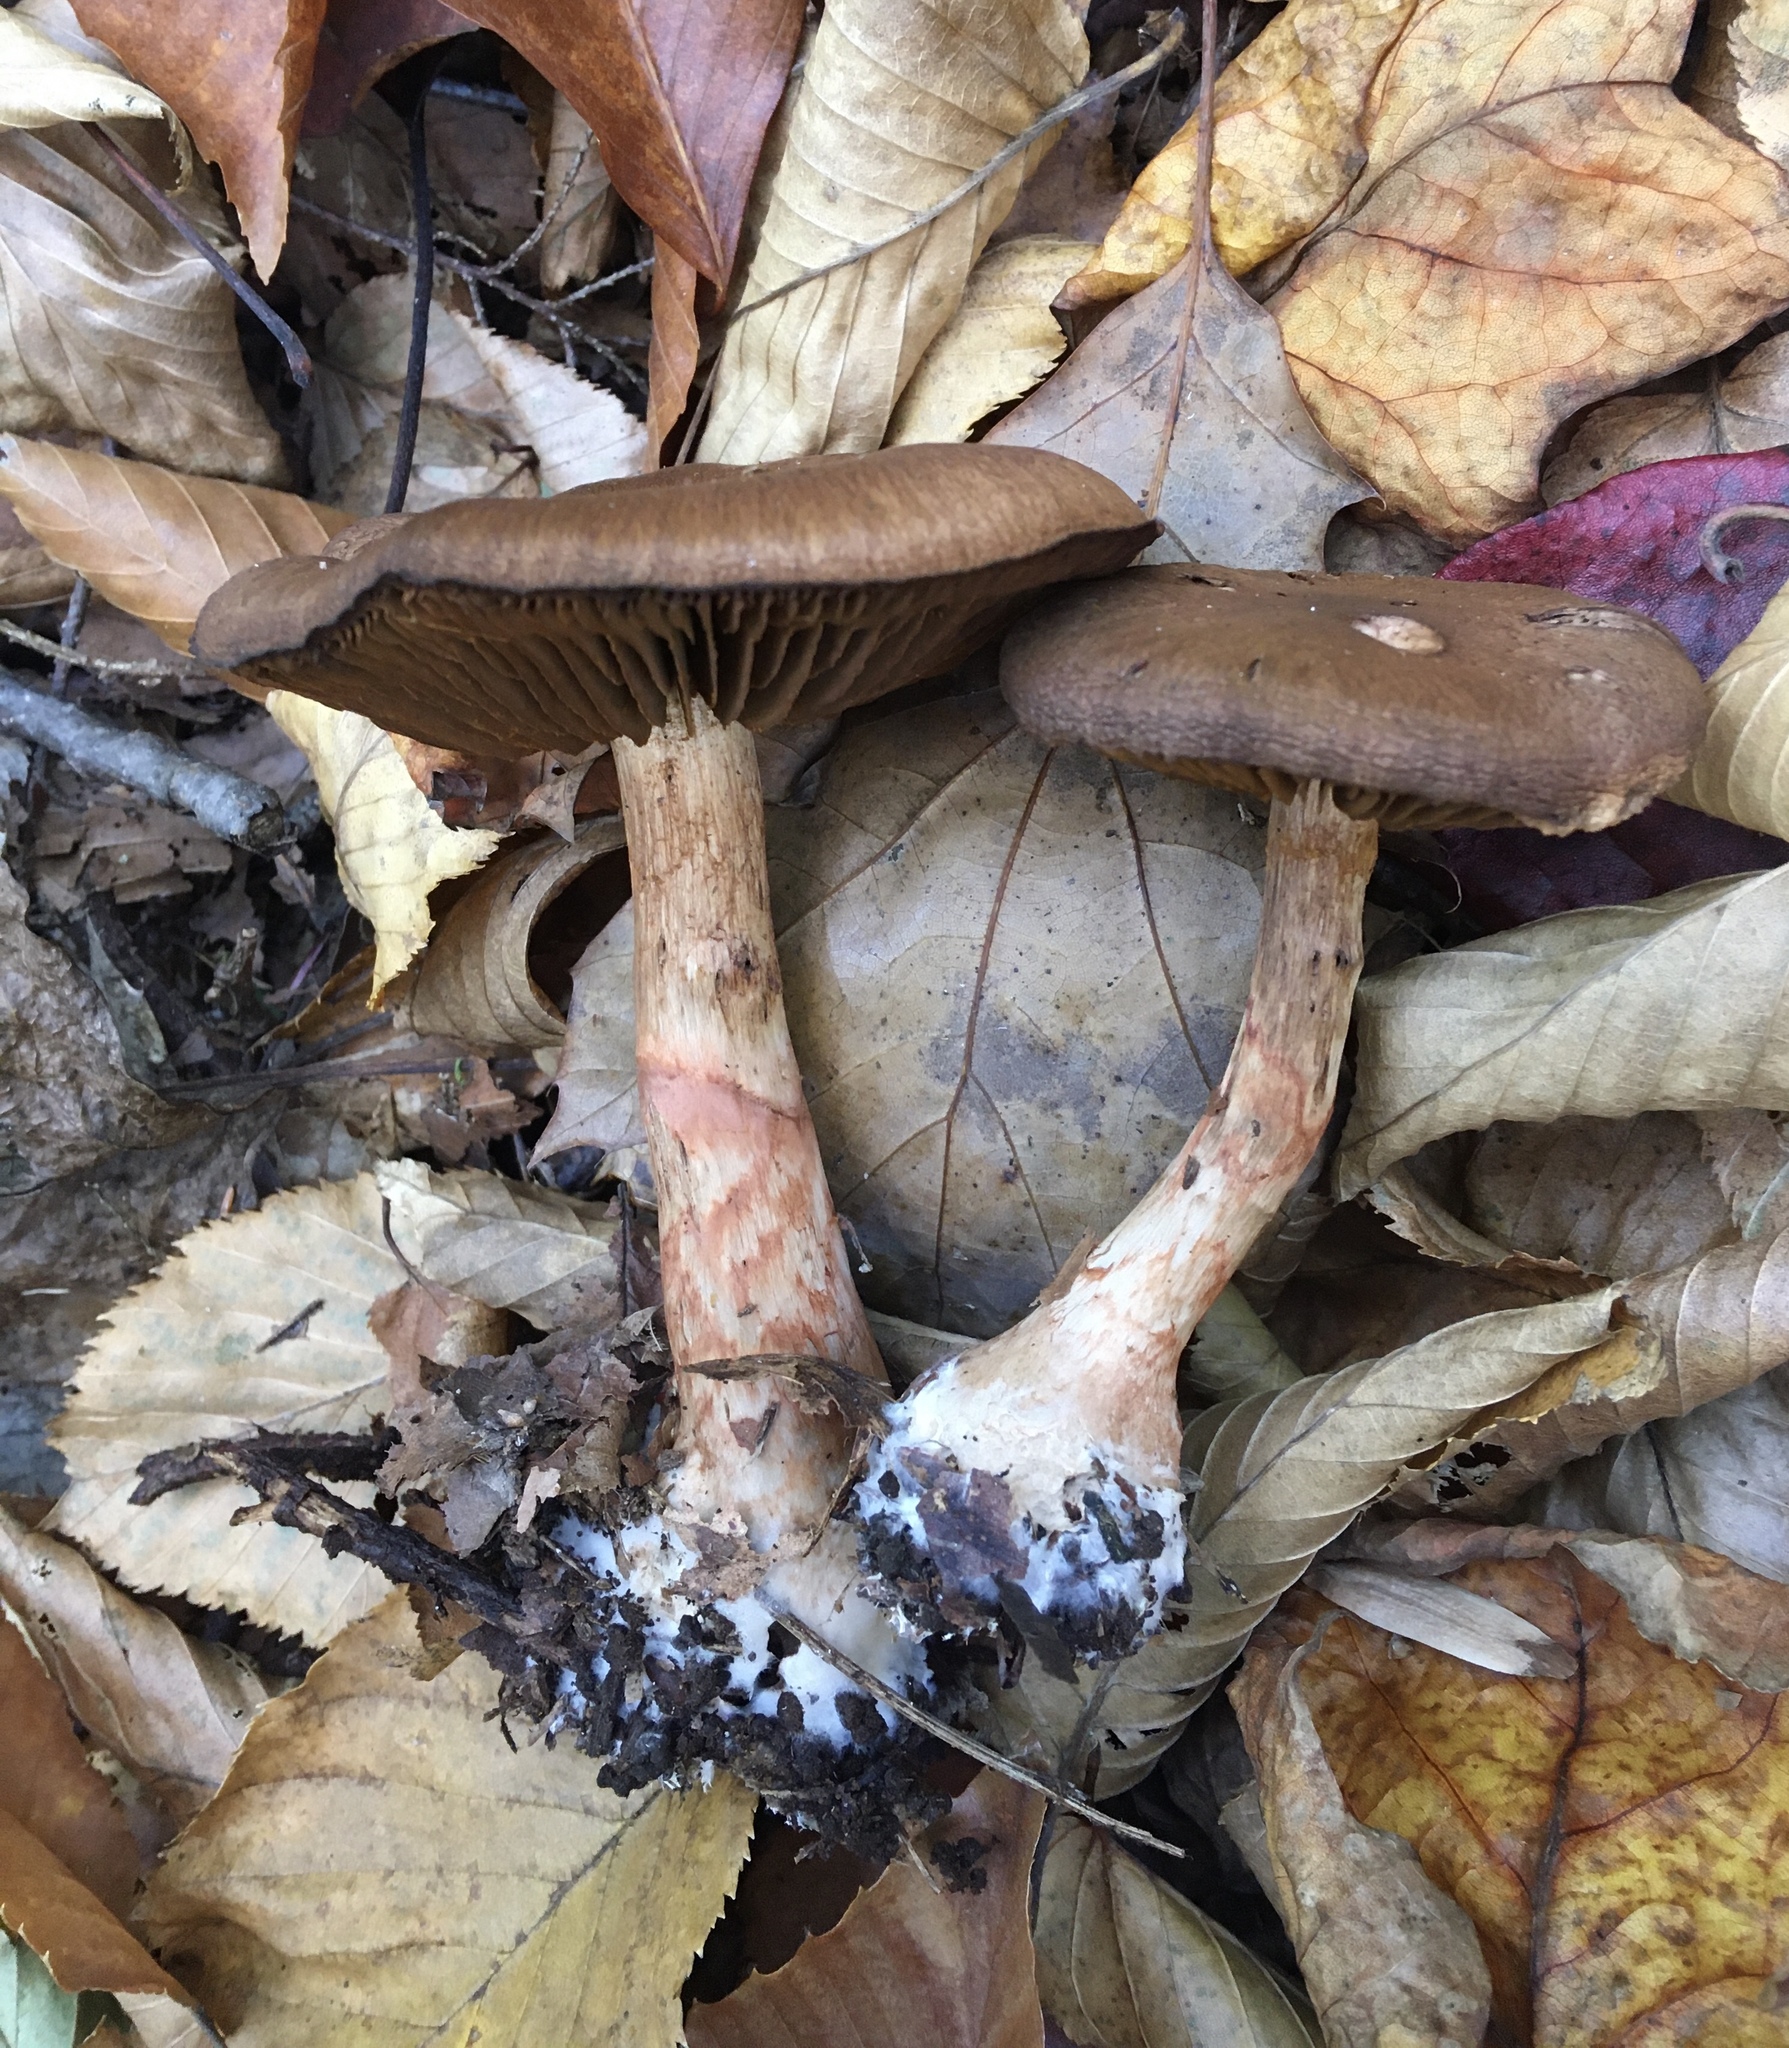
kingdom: Fungi
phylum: Basidiomycota
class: Agaricomycetes
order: Agaricales
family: Cortinariaceae
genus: Cortinarius
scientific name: Cortinarius armillatus
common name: Red banded webcap
